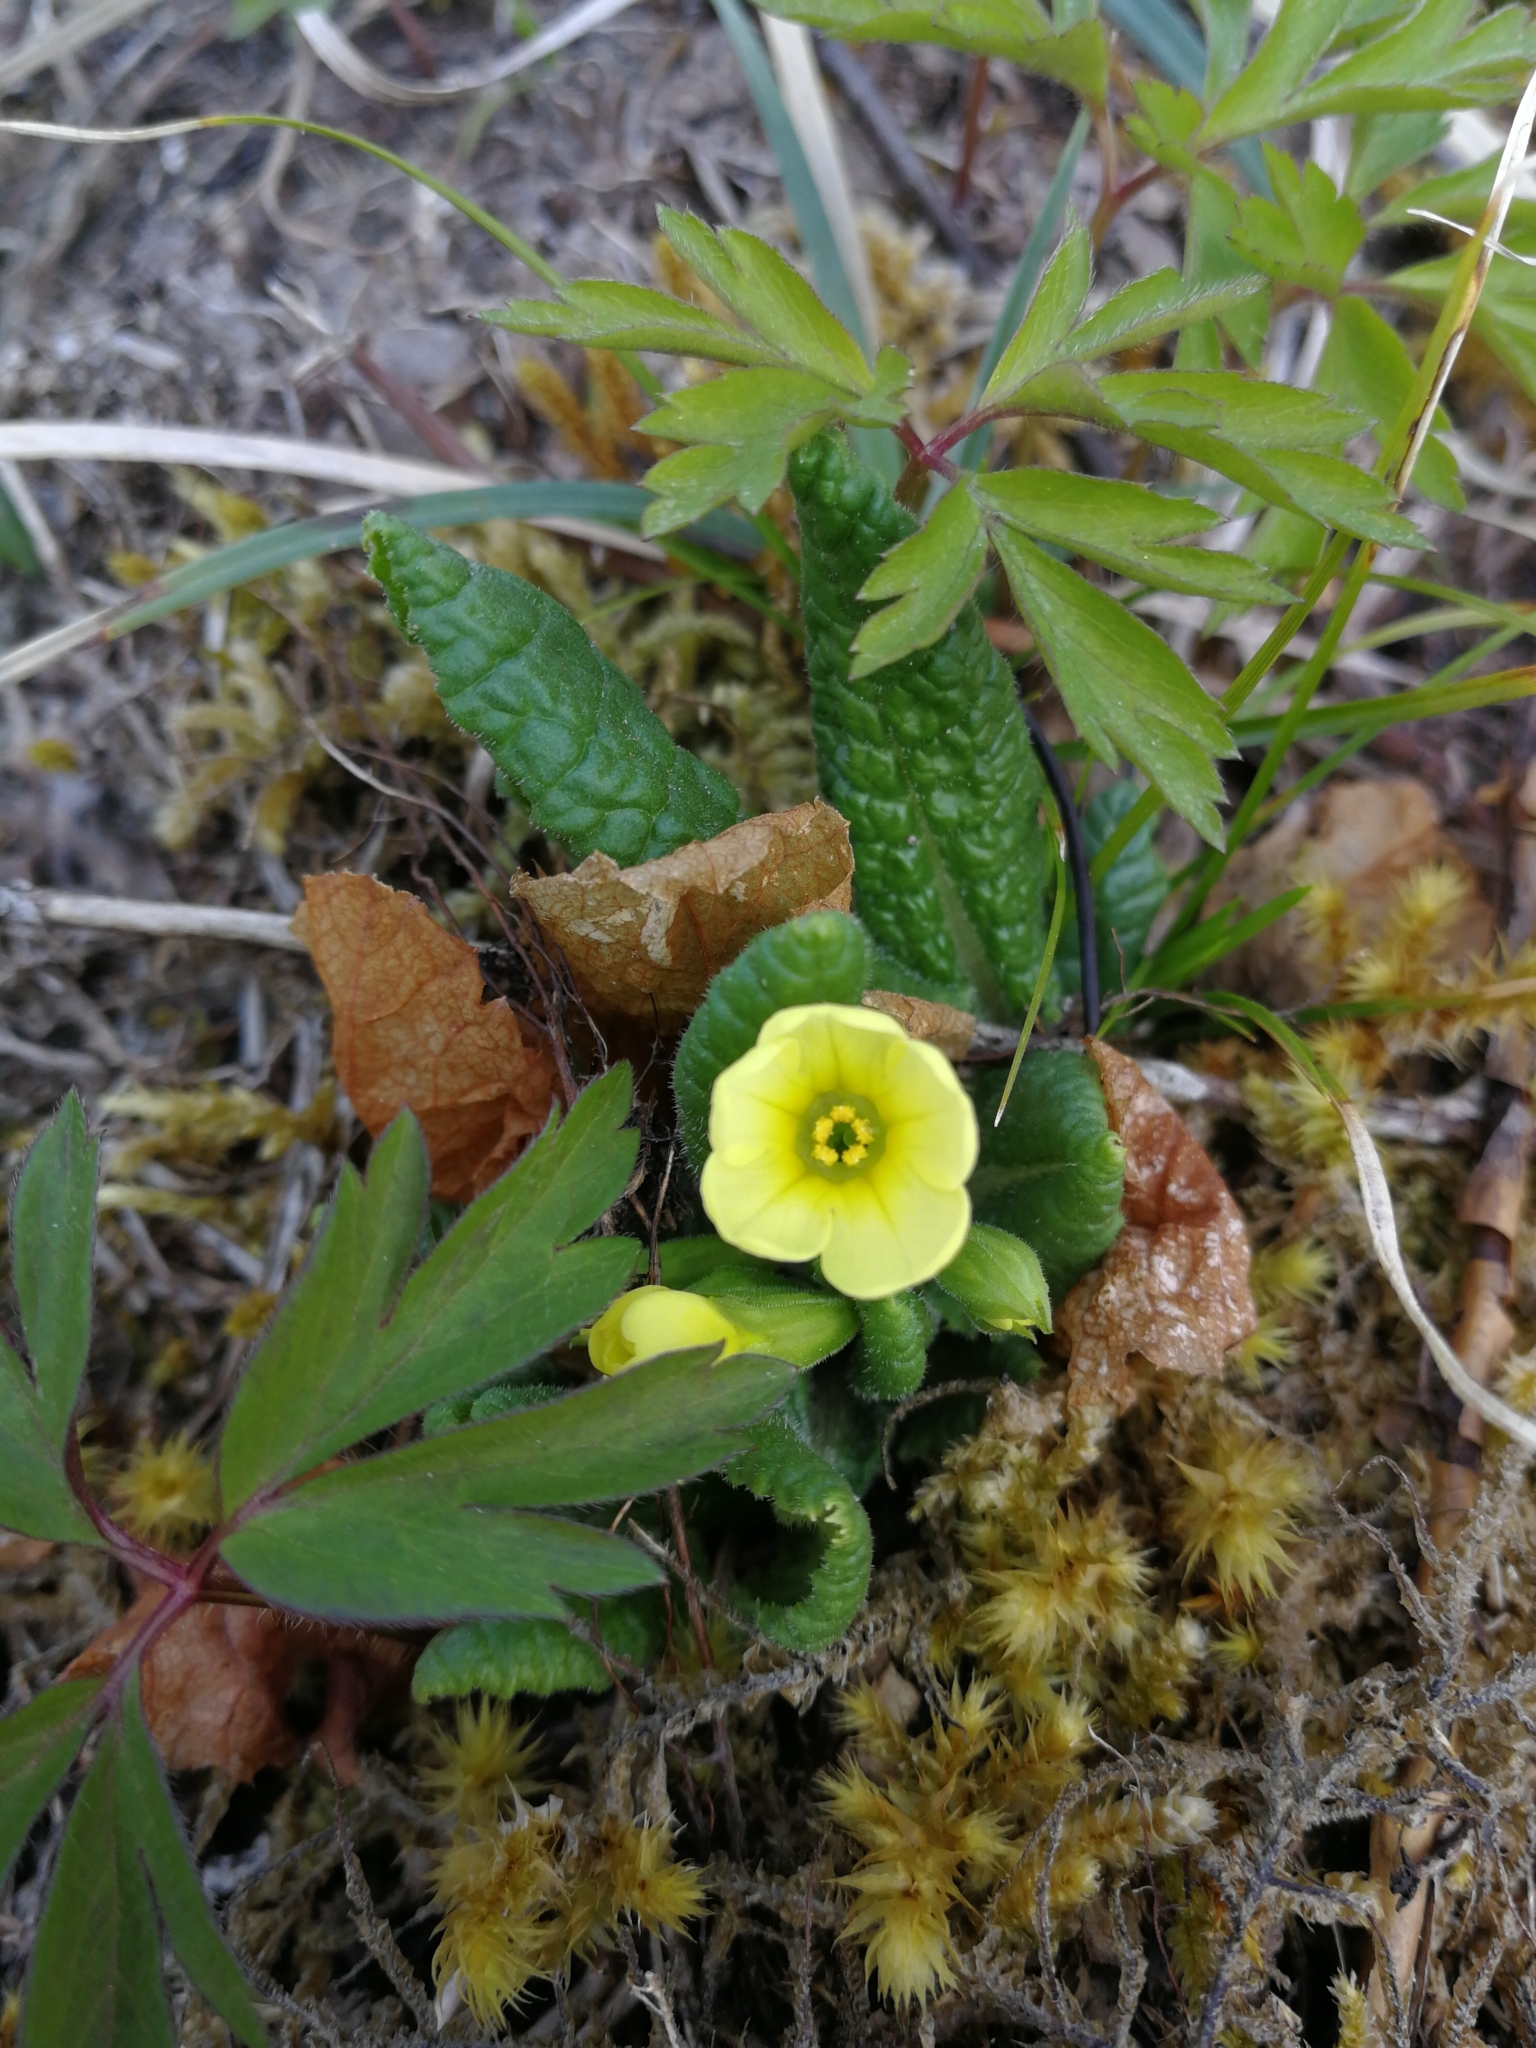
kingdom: Plantae
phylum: Tracheophyta
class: Magnoliopsida
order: Ericales
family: Primulaceae
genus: Primula
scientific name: Primula vulgaris
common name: Primrose
